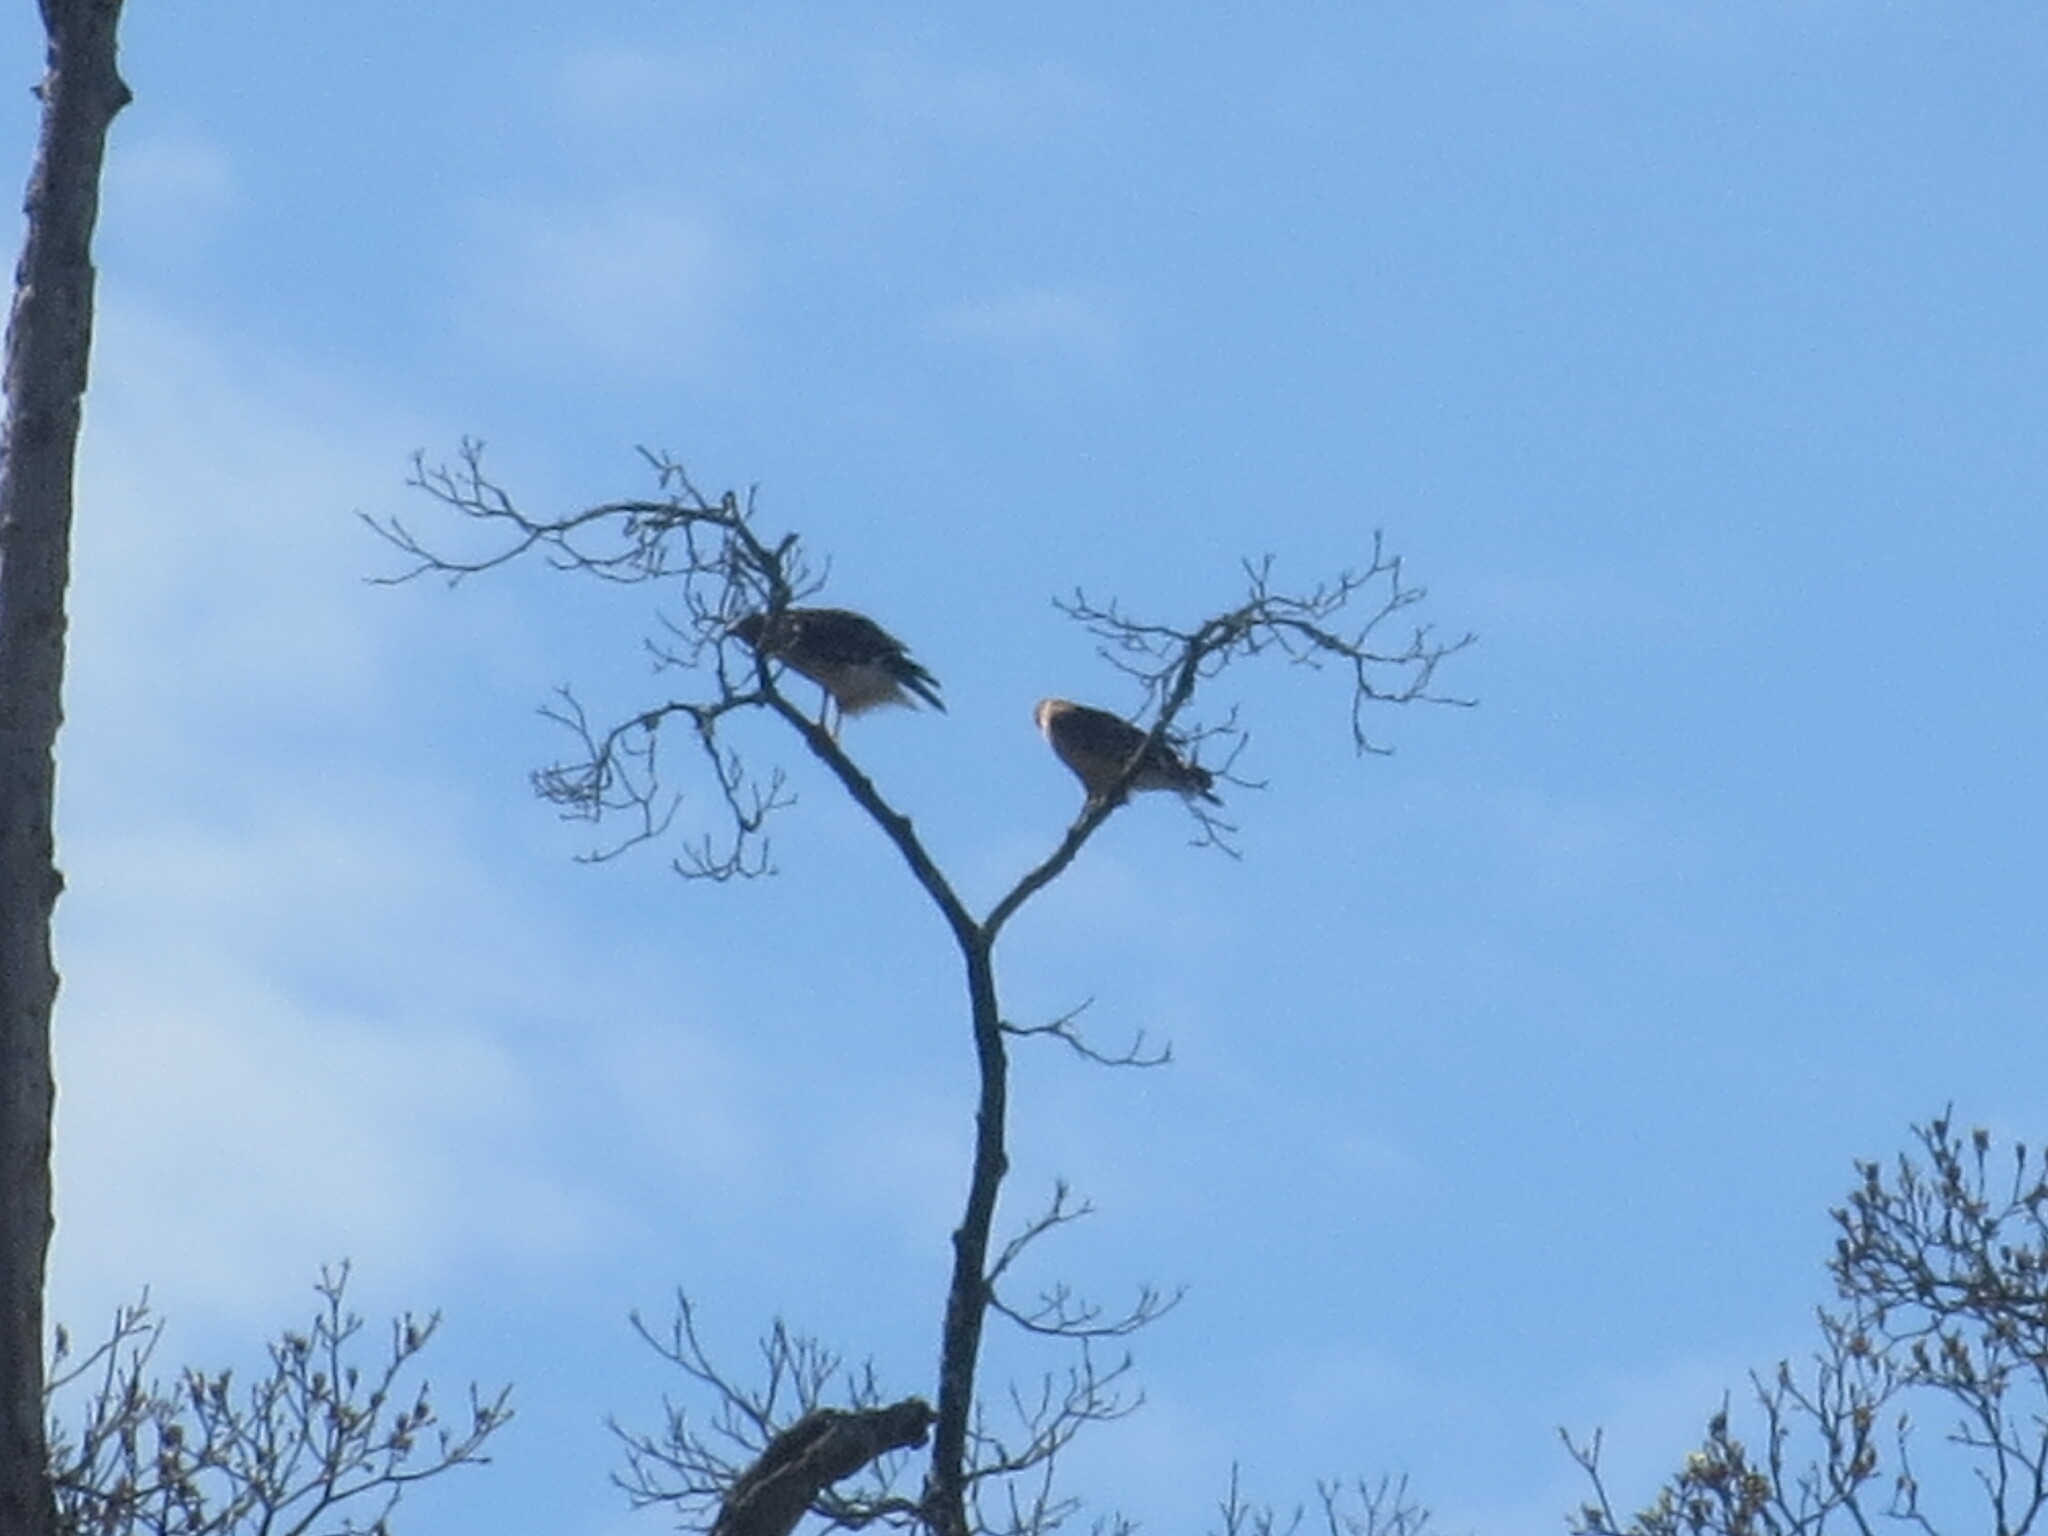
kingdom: Animalia
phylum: Chordata
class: Aves
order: Accipitriformes
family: Accipitridae
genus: Buteo
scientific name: Buteo lineatus
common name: Red-shouldered hawk
